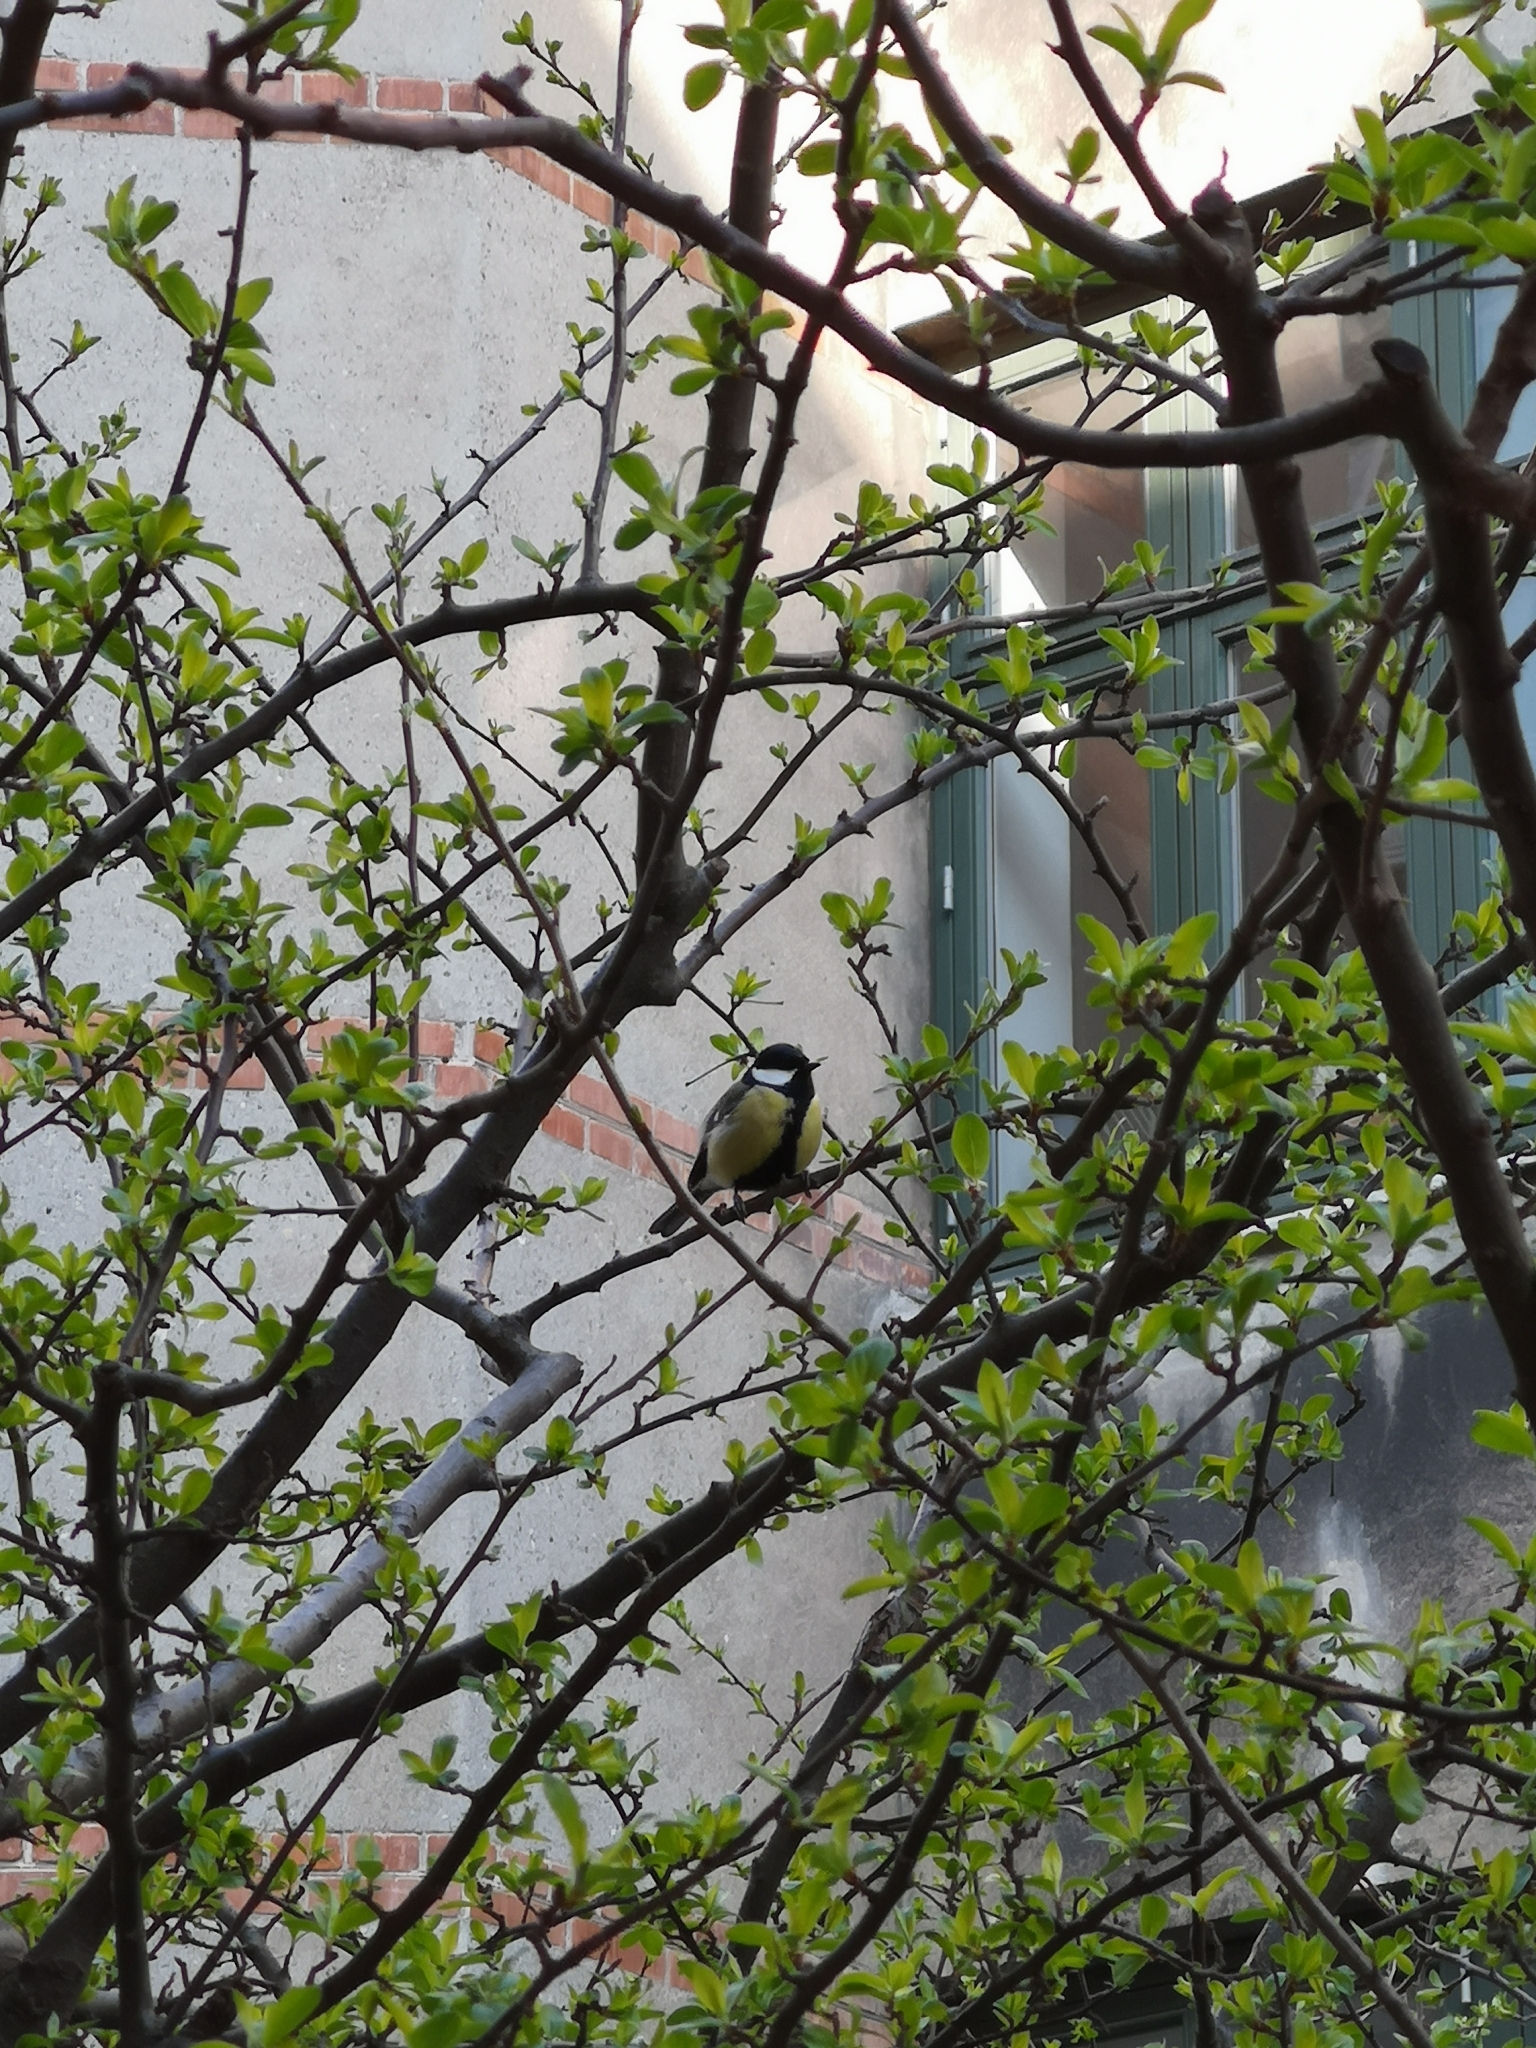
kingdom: Animalia
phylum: Chordata
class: Aves
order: Passeriformes
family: Paridae
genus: Parus
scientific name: Parus major
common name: Great tit
